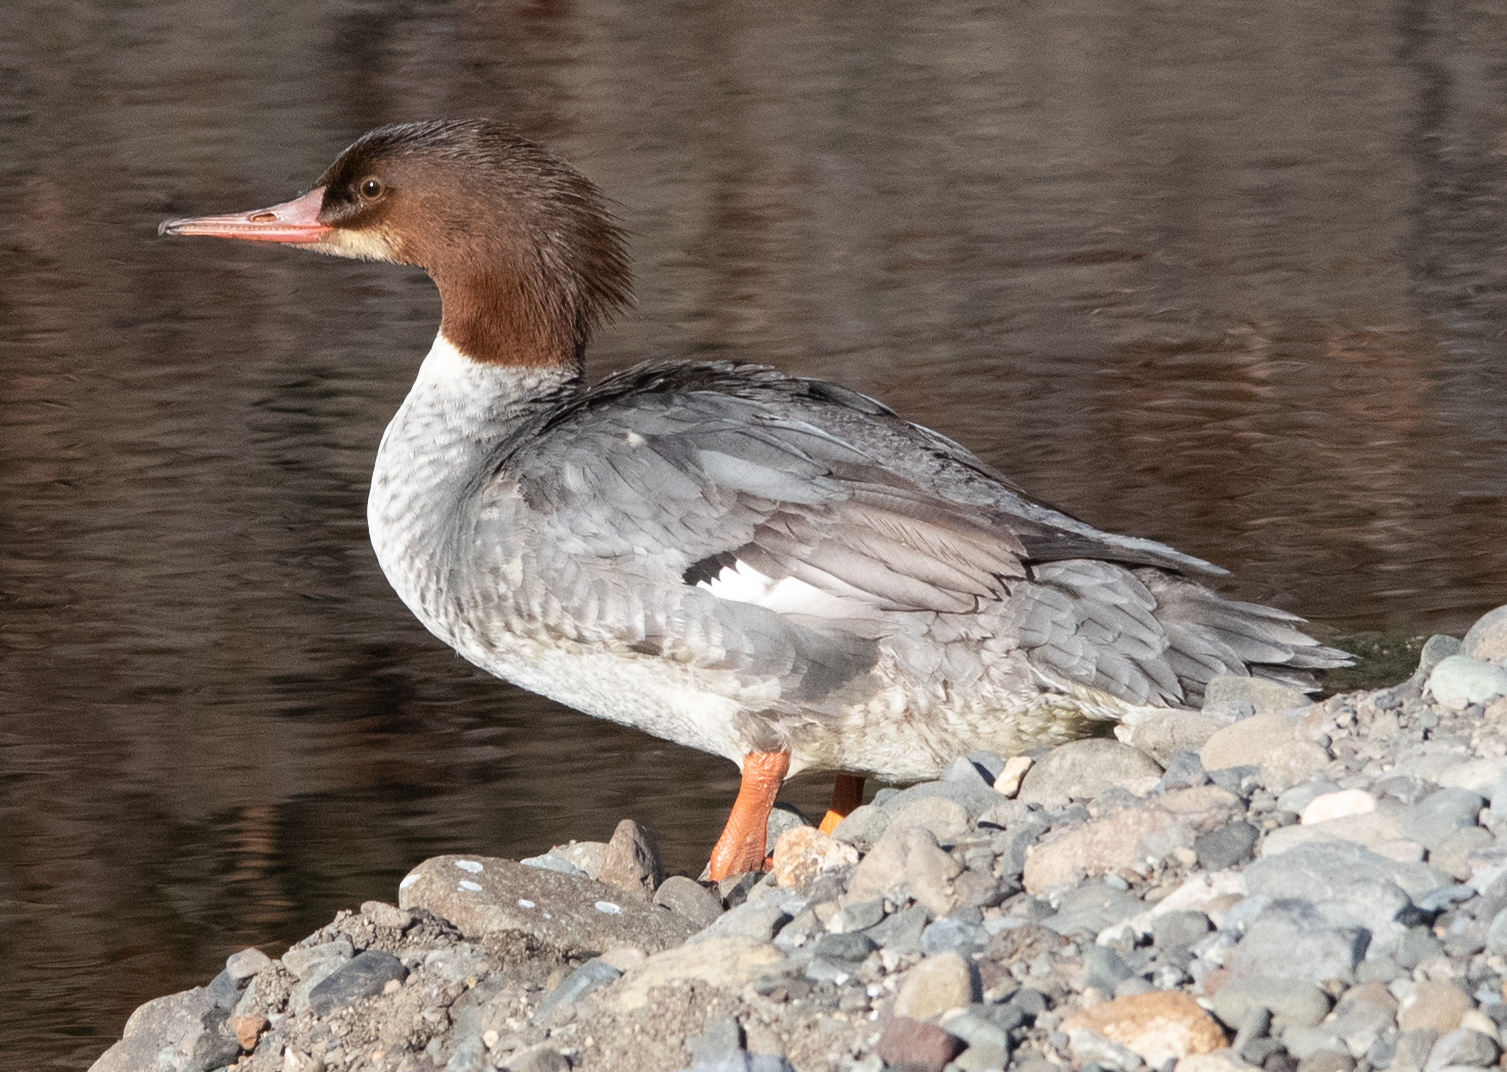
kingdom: Animalia
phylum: Chordata
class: Aves
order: Anseriformes
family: Anatidae
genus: Mergus
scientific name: Mergus merganser
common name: Common merganser
